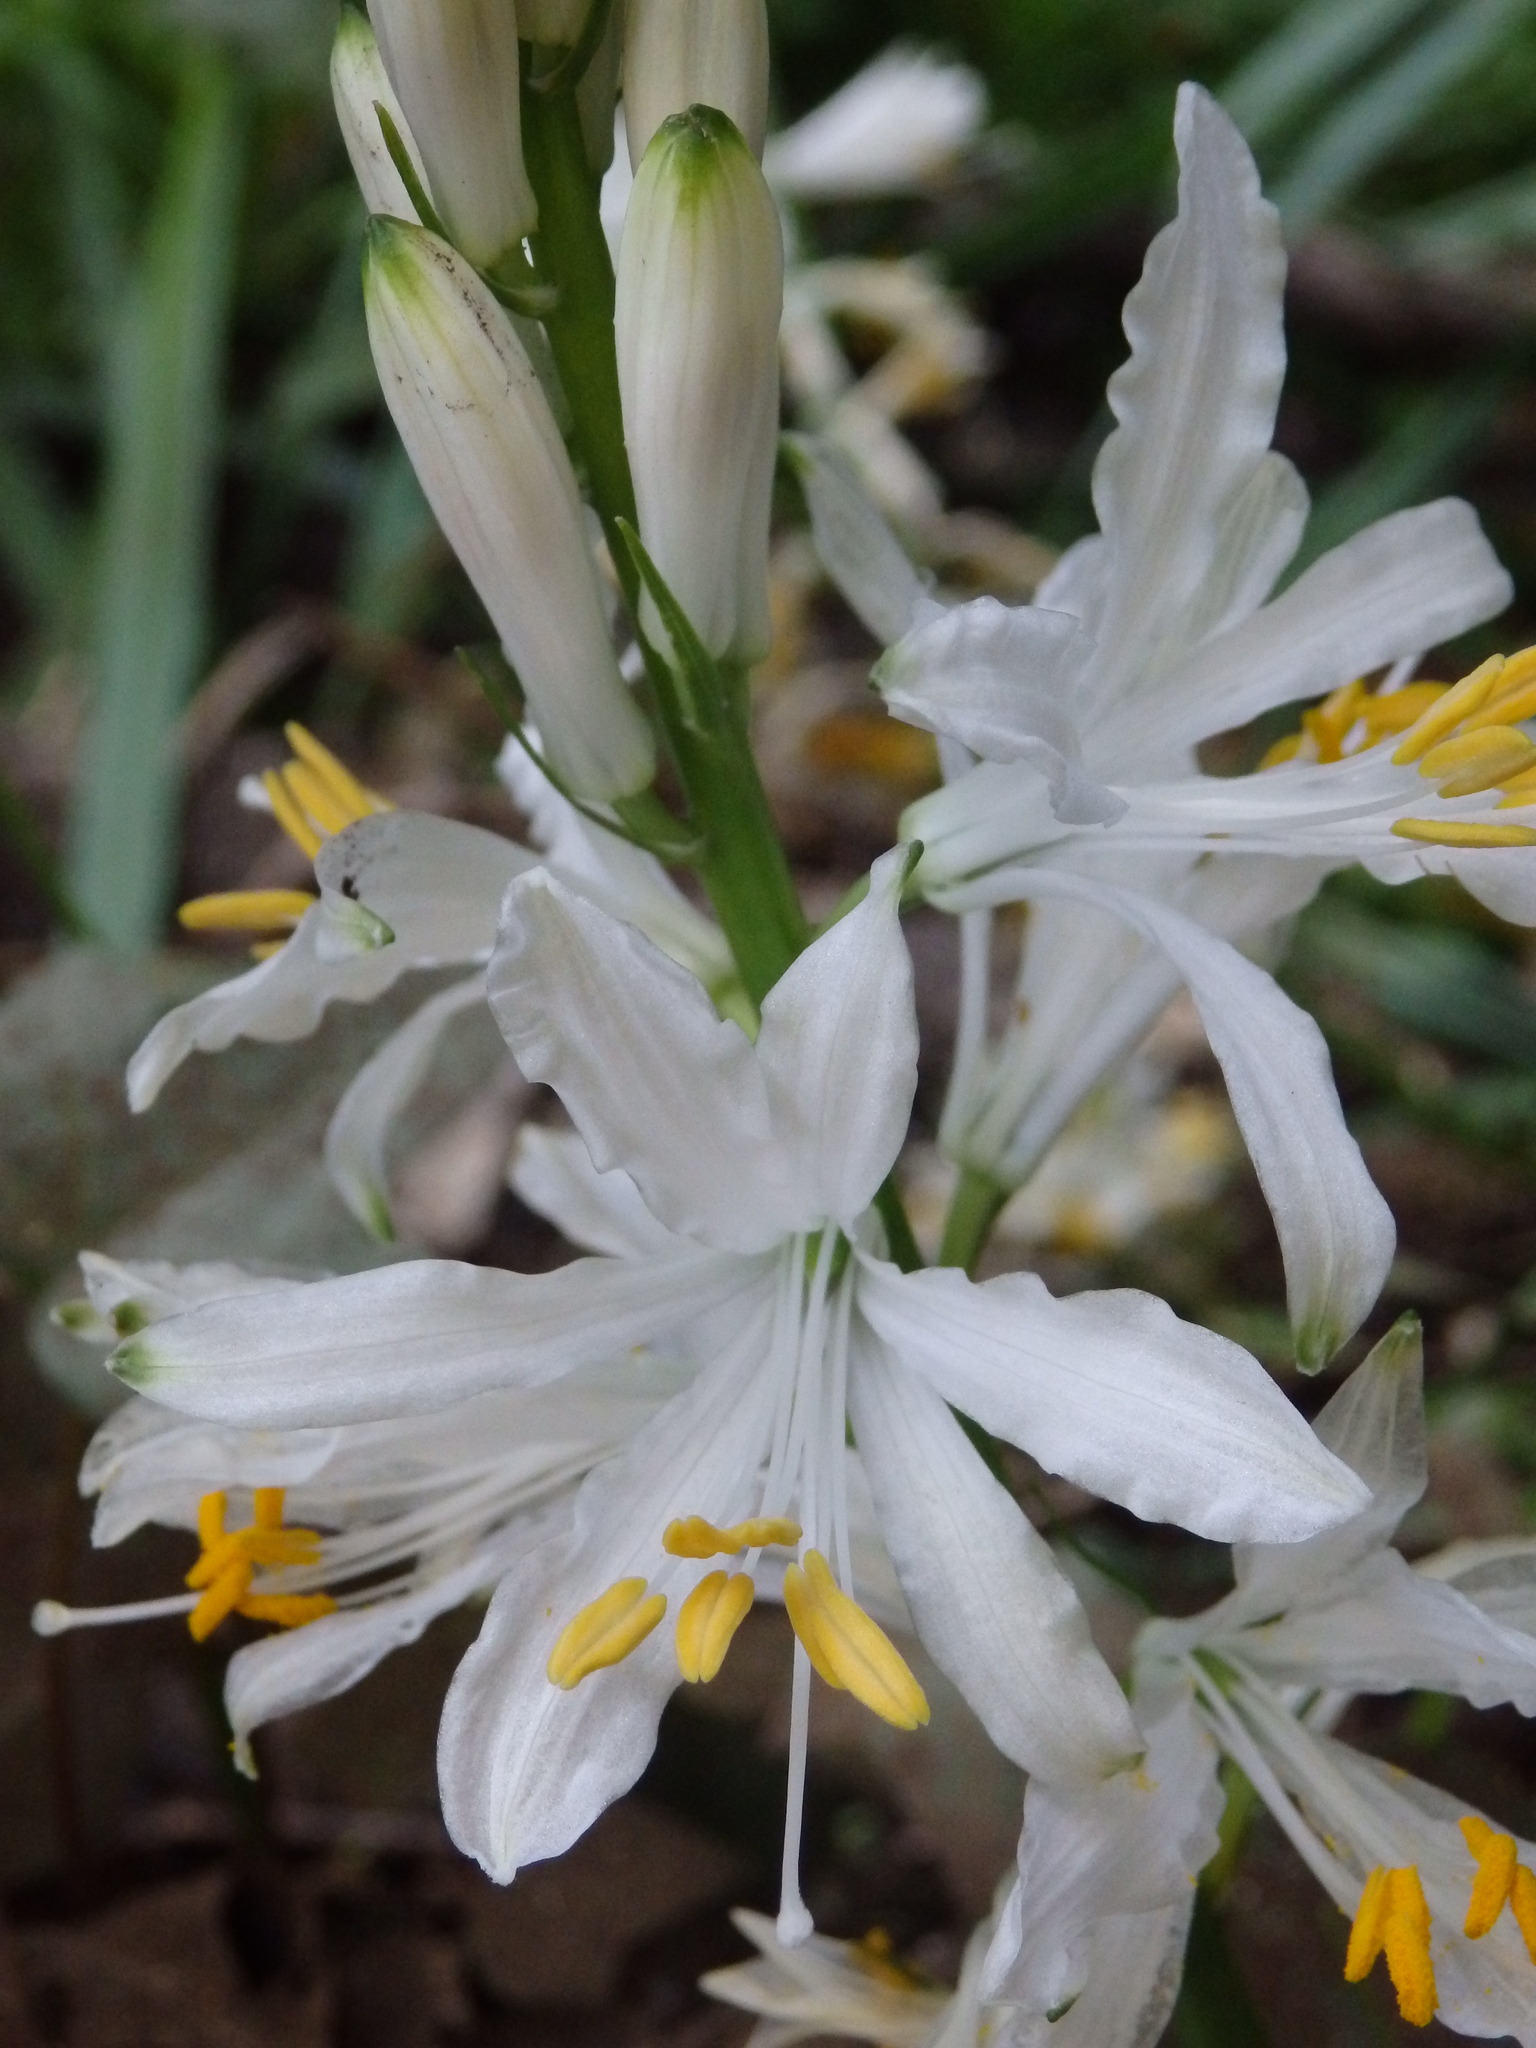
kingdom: Plantae
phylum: Tracheophyta
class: Liliopsida
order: Asparagales
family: Asparagaceae
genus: Paradisea
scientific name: Paradisea lusitanica
